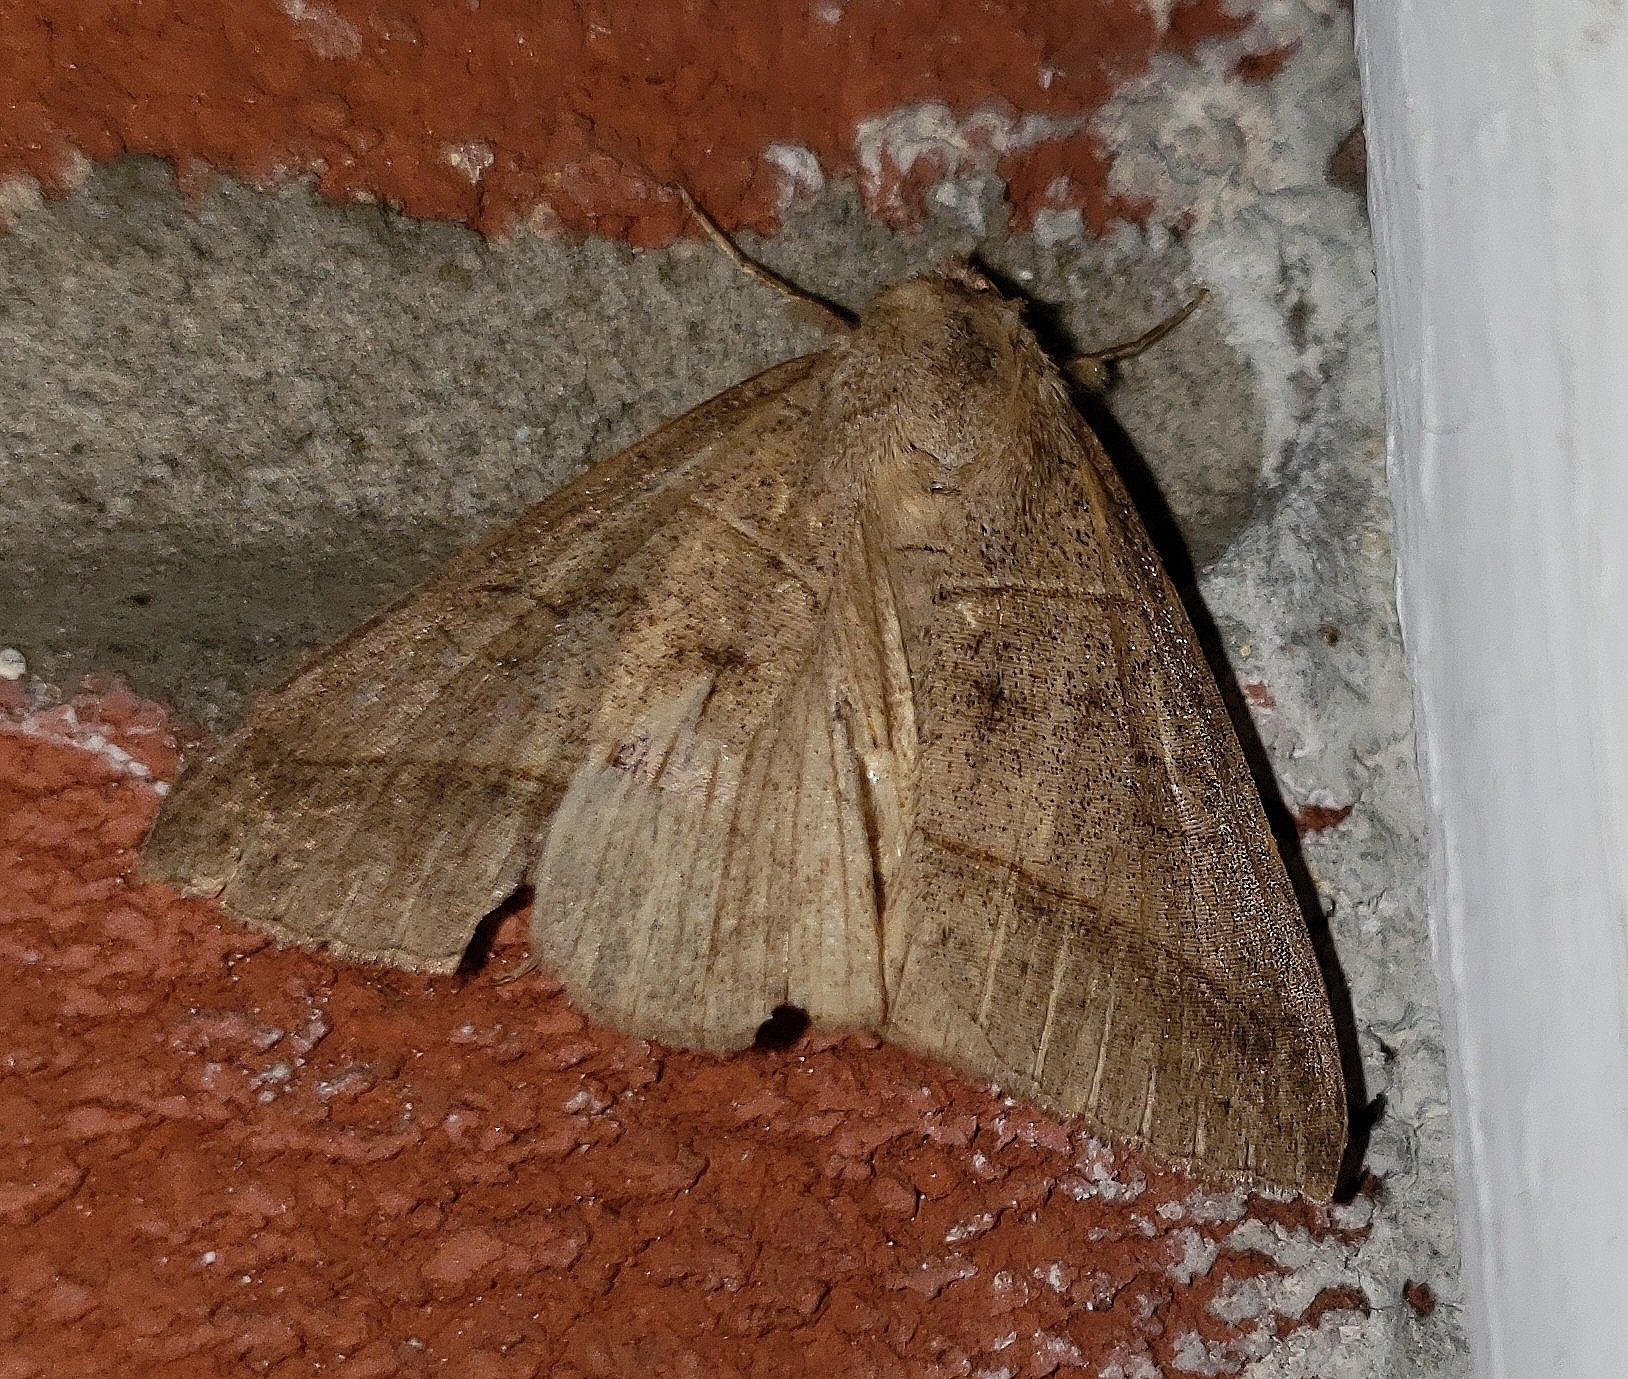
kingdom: Animalia
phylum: Arthropoda
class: Insecta
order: Lepidoptera
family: Erebidae
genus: Mocis
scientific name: Mocis texana
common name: Texas mocis moth
